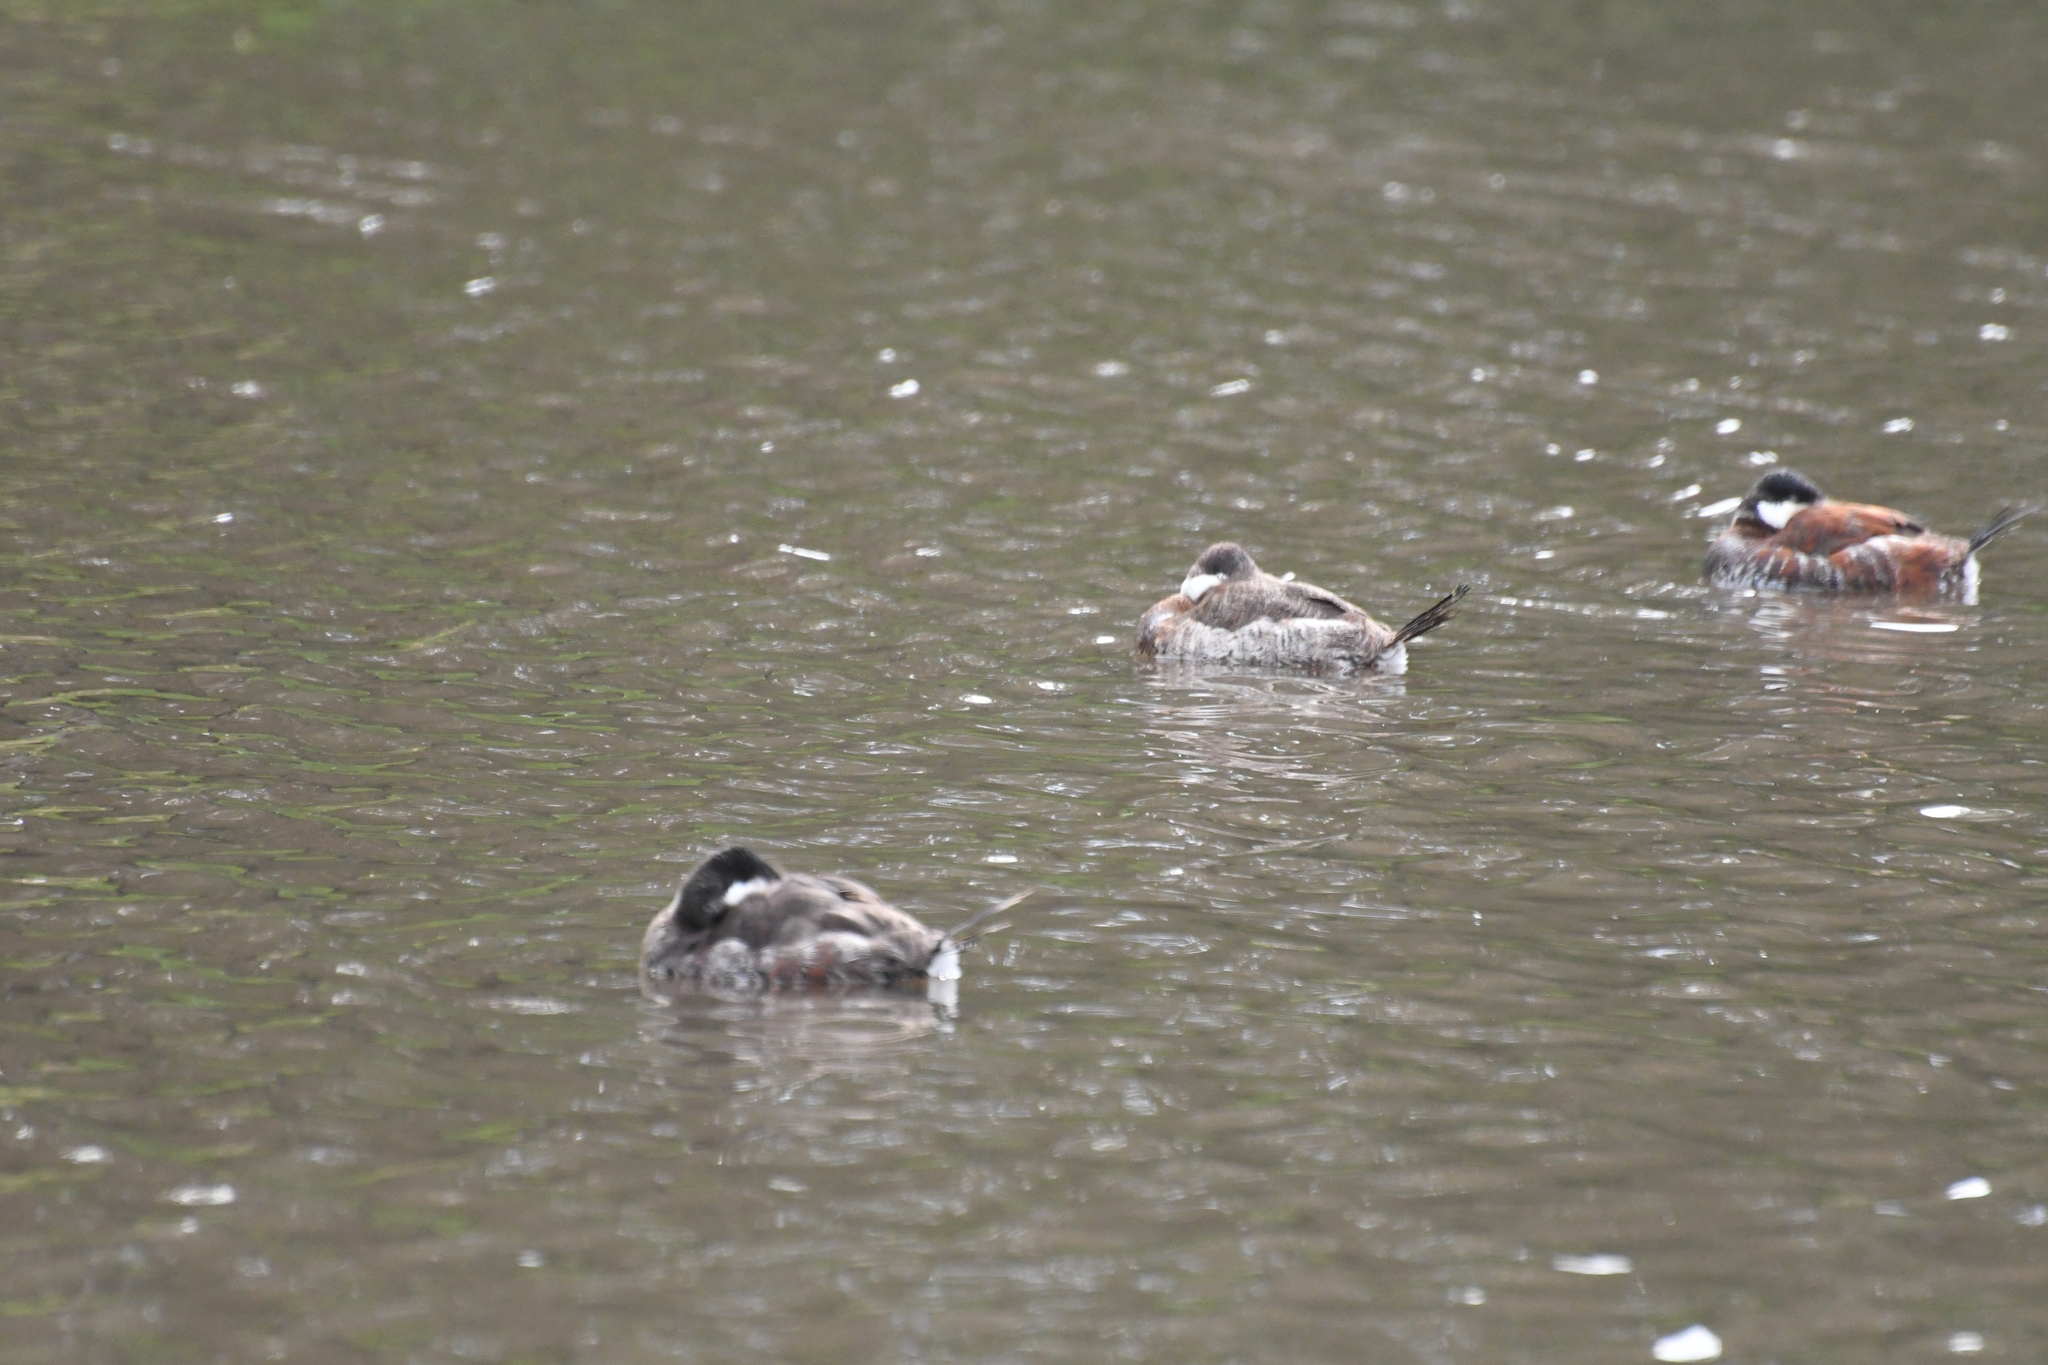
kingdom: Animalia
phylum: Chordata
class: Aves
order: Anseriformes
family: Anatidae
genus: Oxyura
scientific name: Oxyura jamaicensis
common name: Ruddy duck
